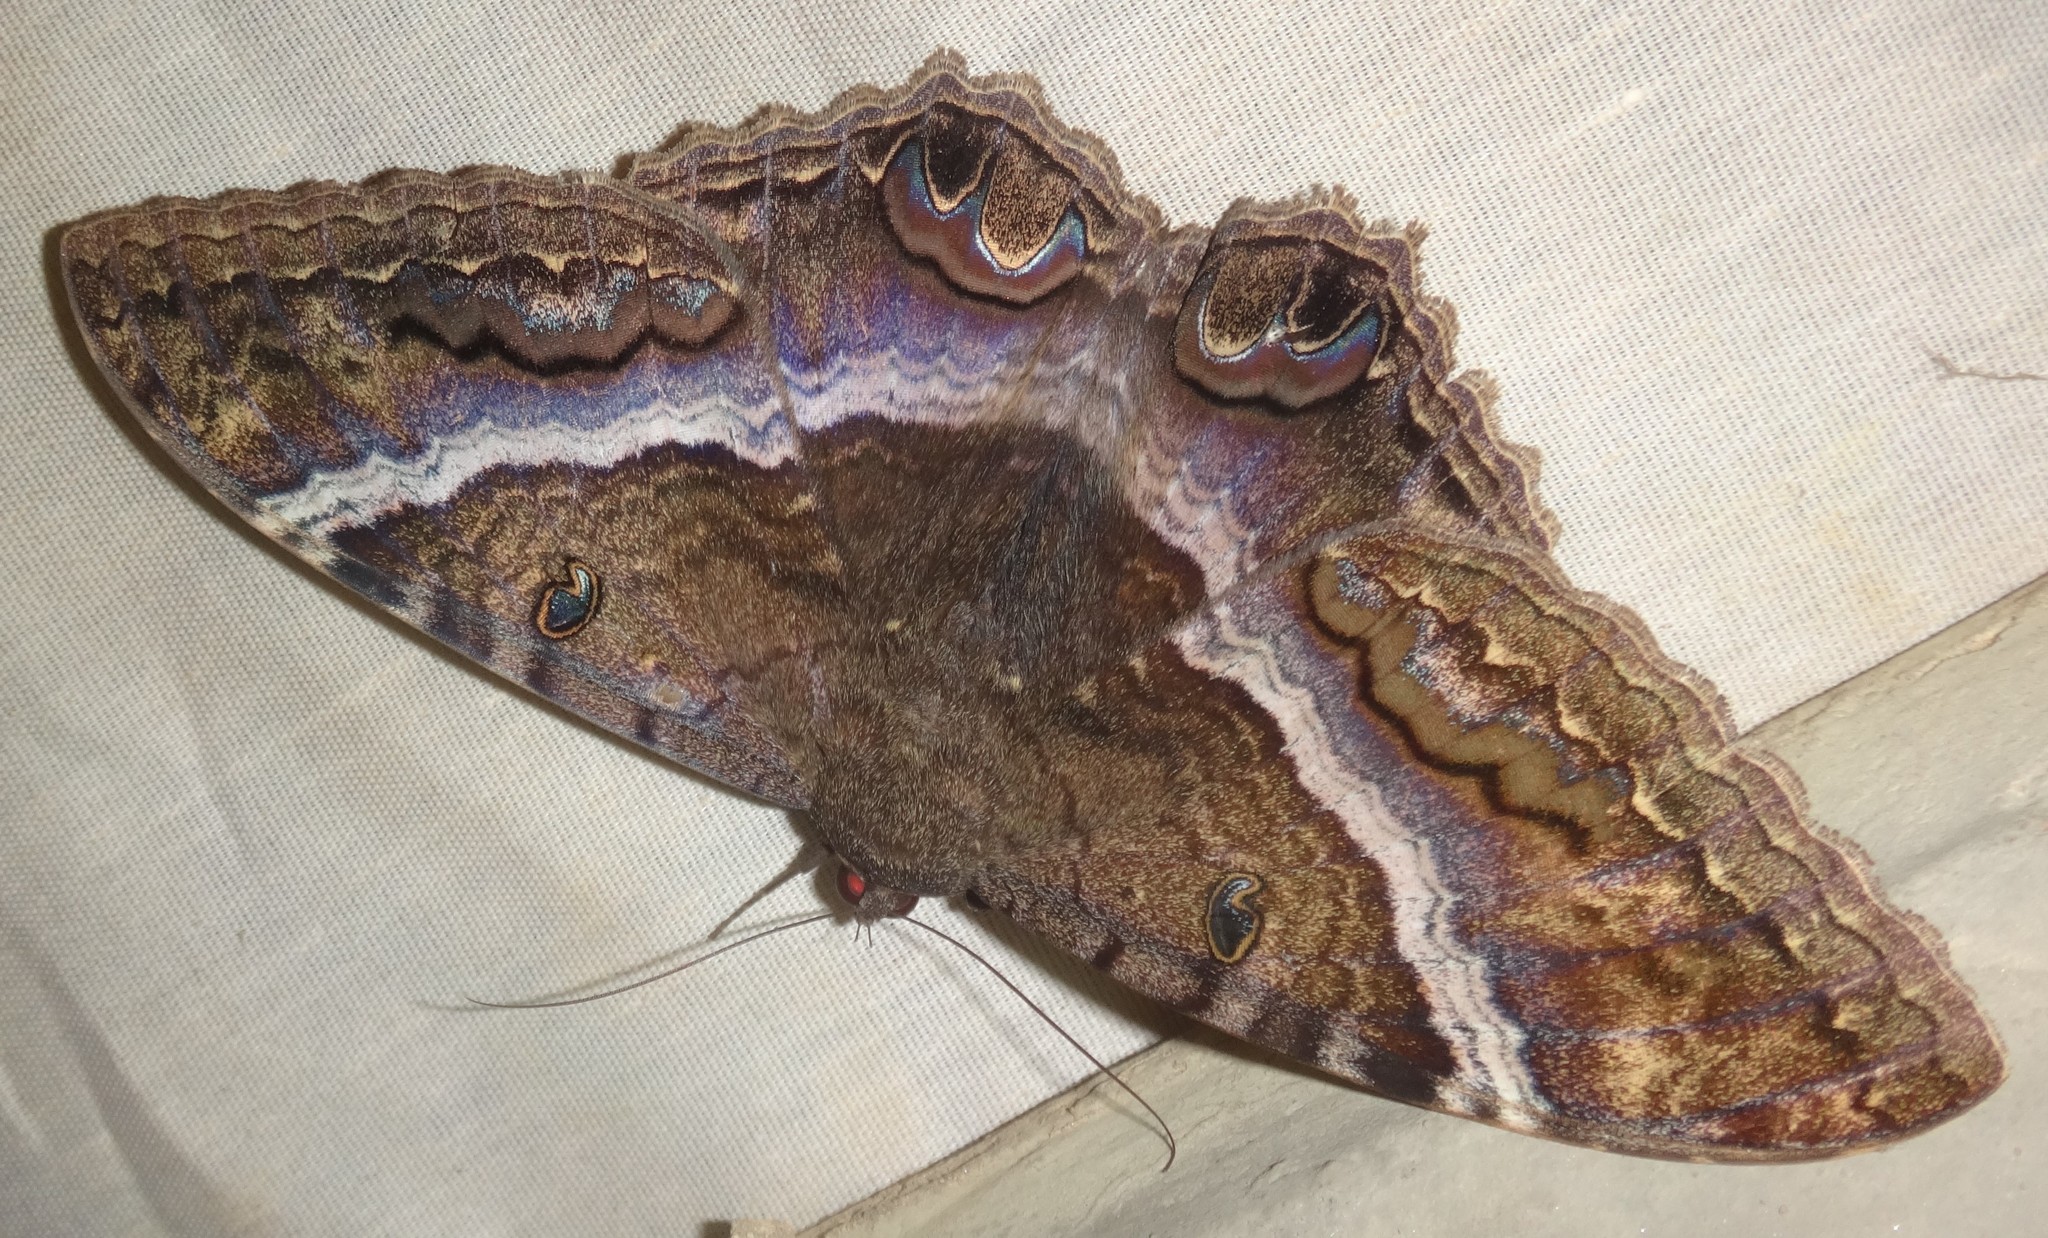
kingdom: Animalia
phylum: Arthropoda
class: Insecta
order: Lepidoptera
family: Erebidae
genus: Ascalapha
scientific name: Ascalapha odorata
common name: Black witch
